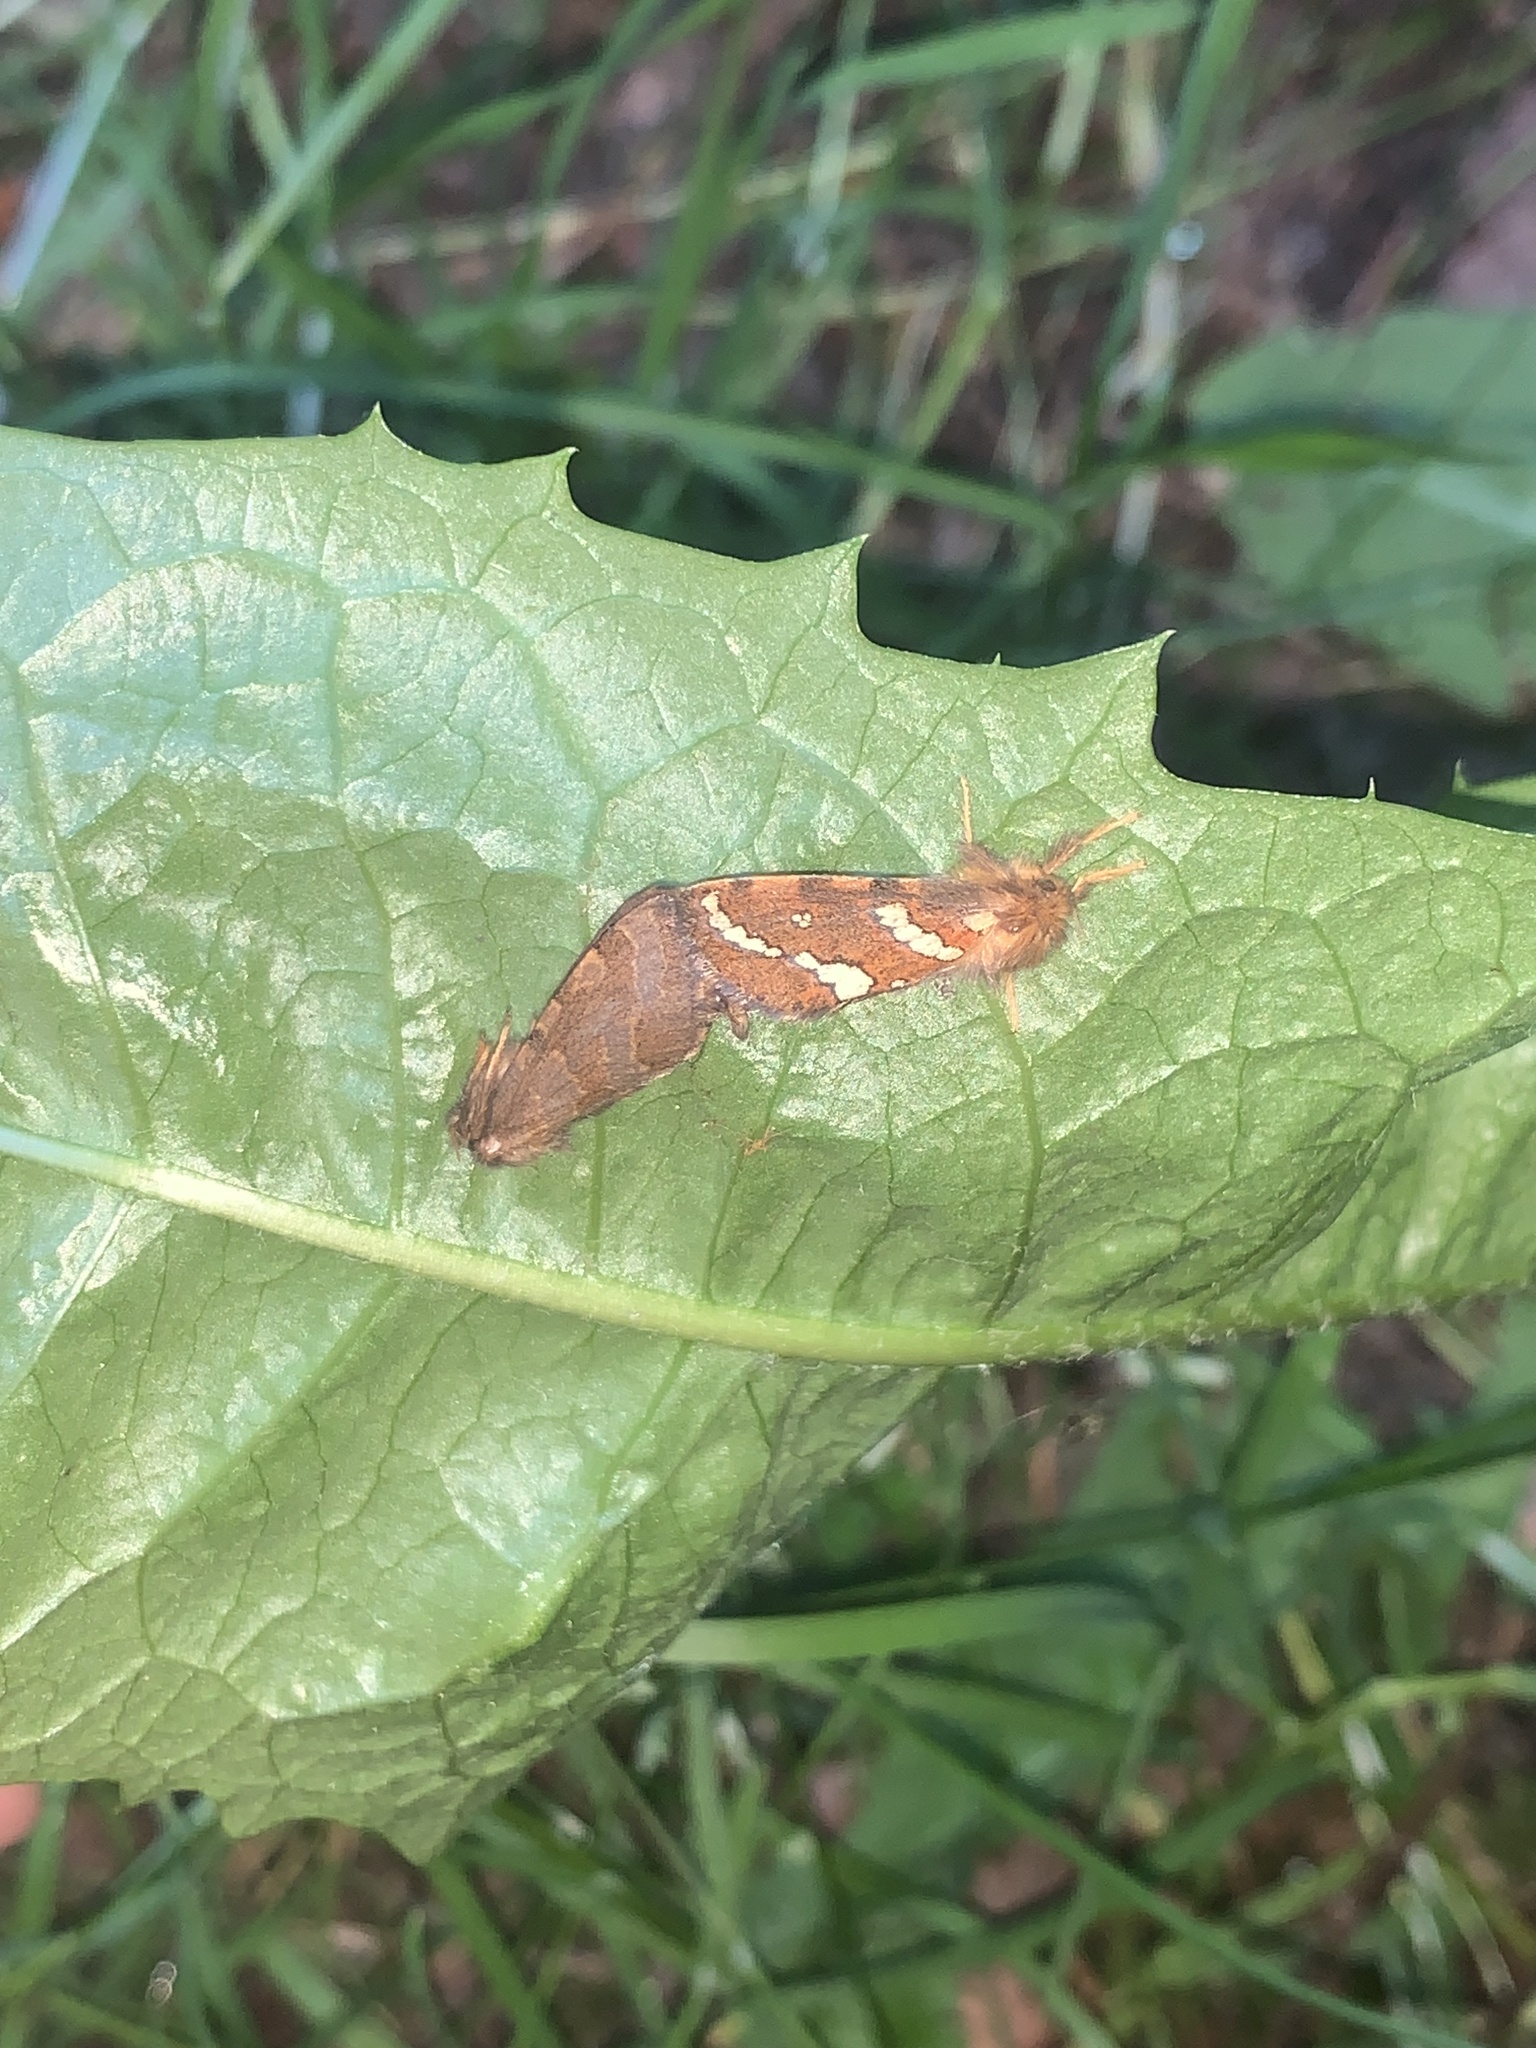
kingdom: Animalia
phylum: Arthropoda
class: Insecta
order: Lepidoptera
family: Hepialidae
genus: Phymatopus
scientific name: Phymatopus hecta
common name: Gold swift
